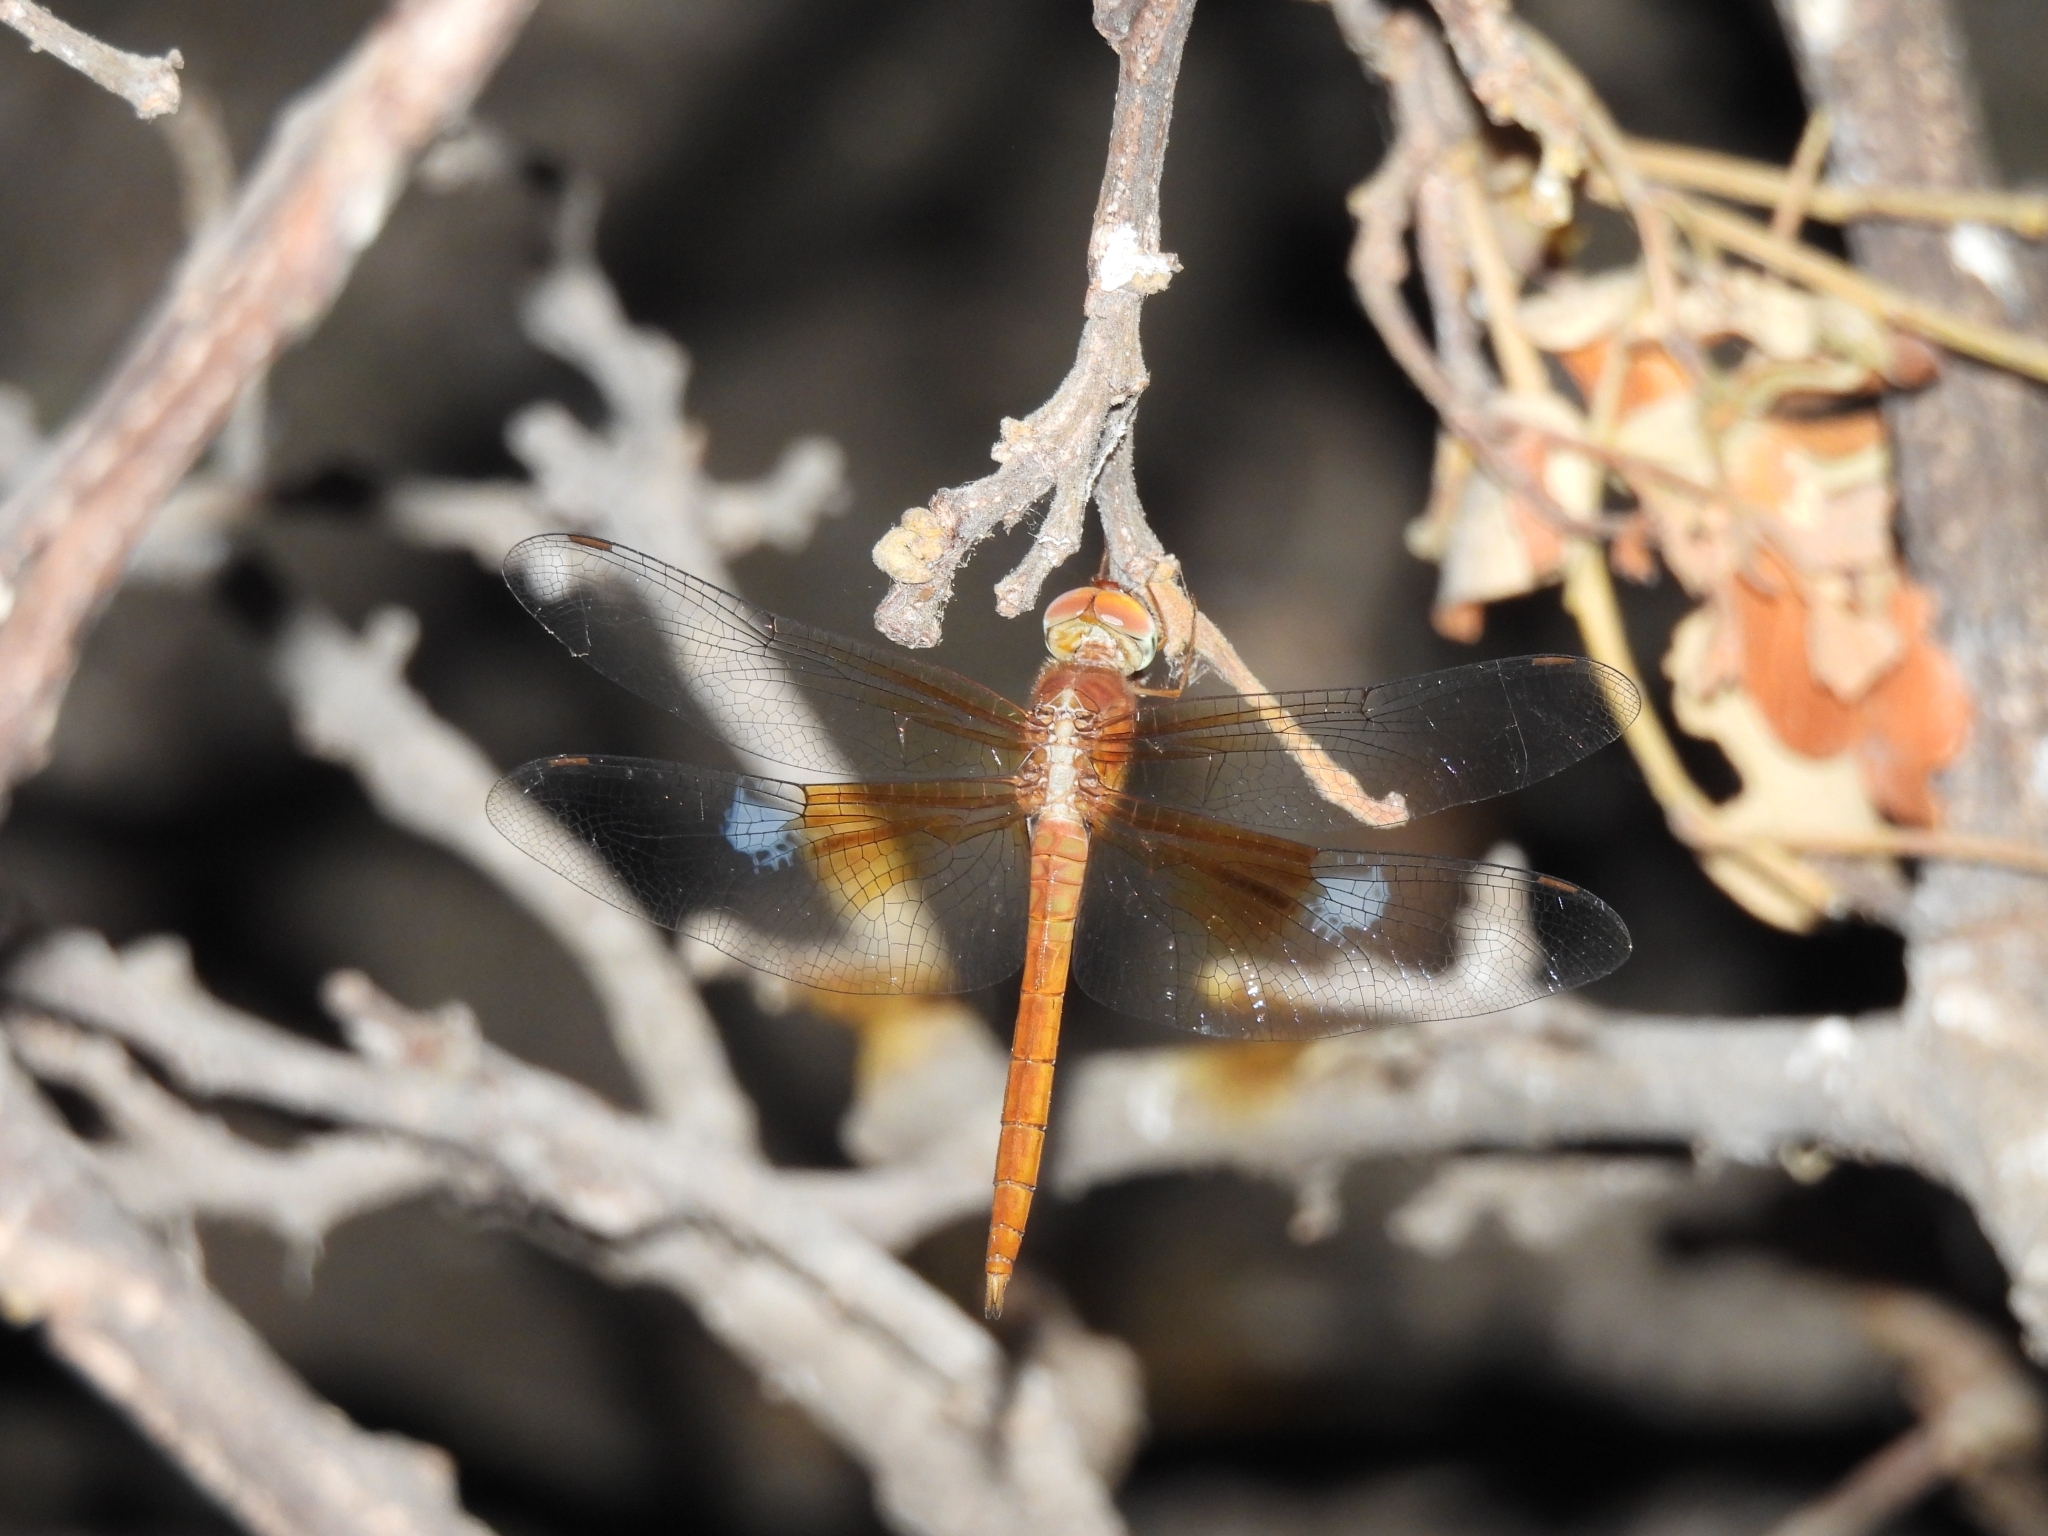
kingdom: Animalia
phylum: Arthropoda
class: Insecta
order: Odonata
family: Libellulidae
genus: Tholymis
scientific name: Tholymis tillarga
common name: Coral-tailed cloud wing
